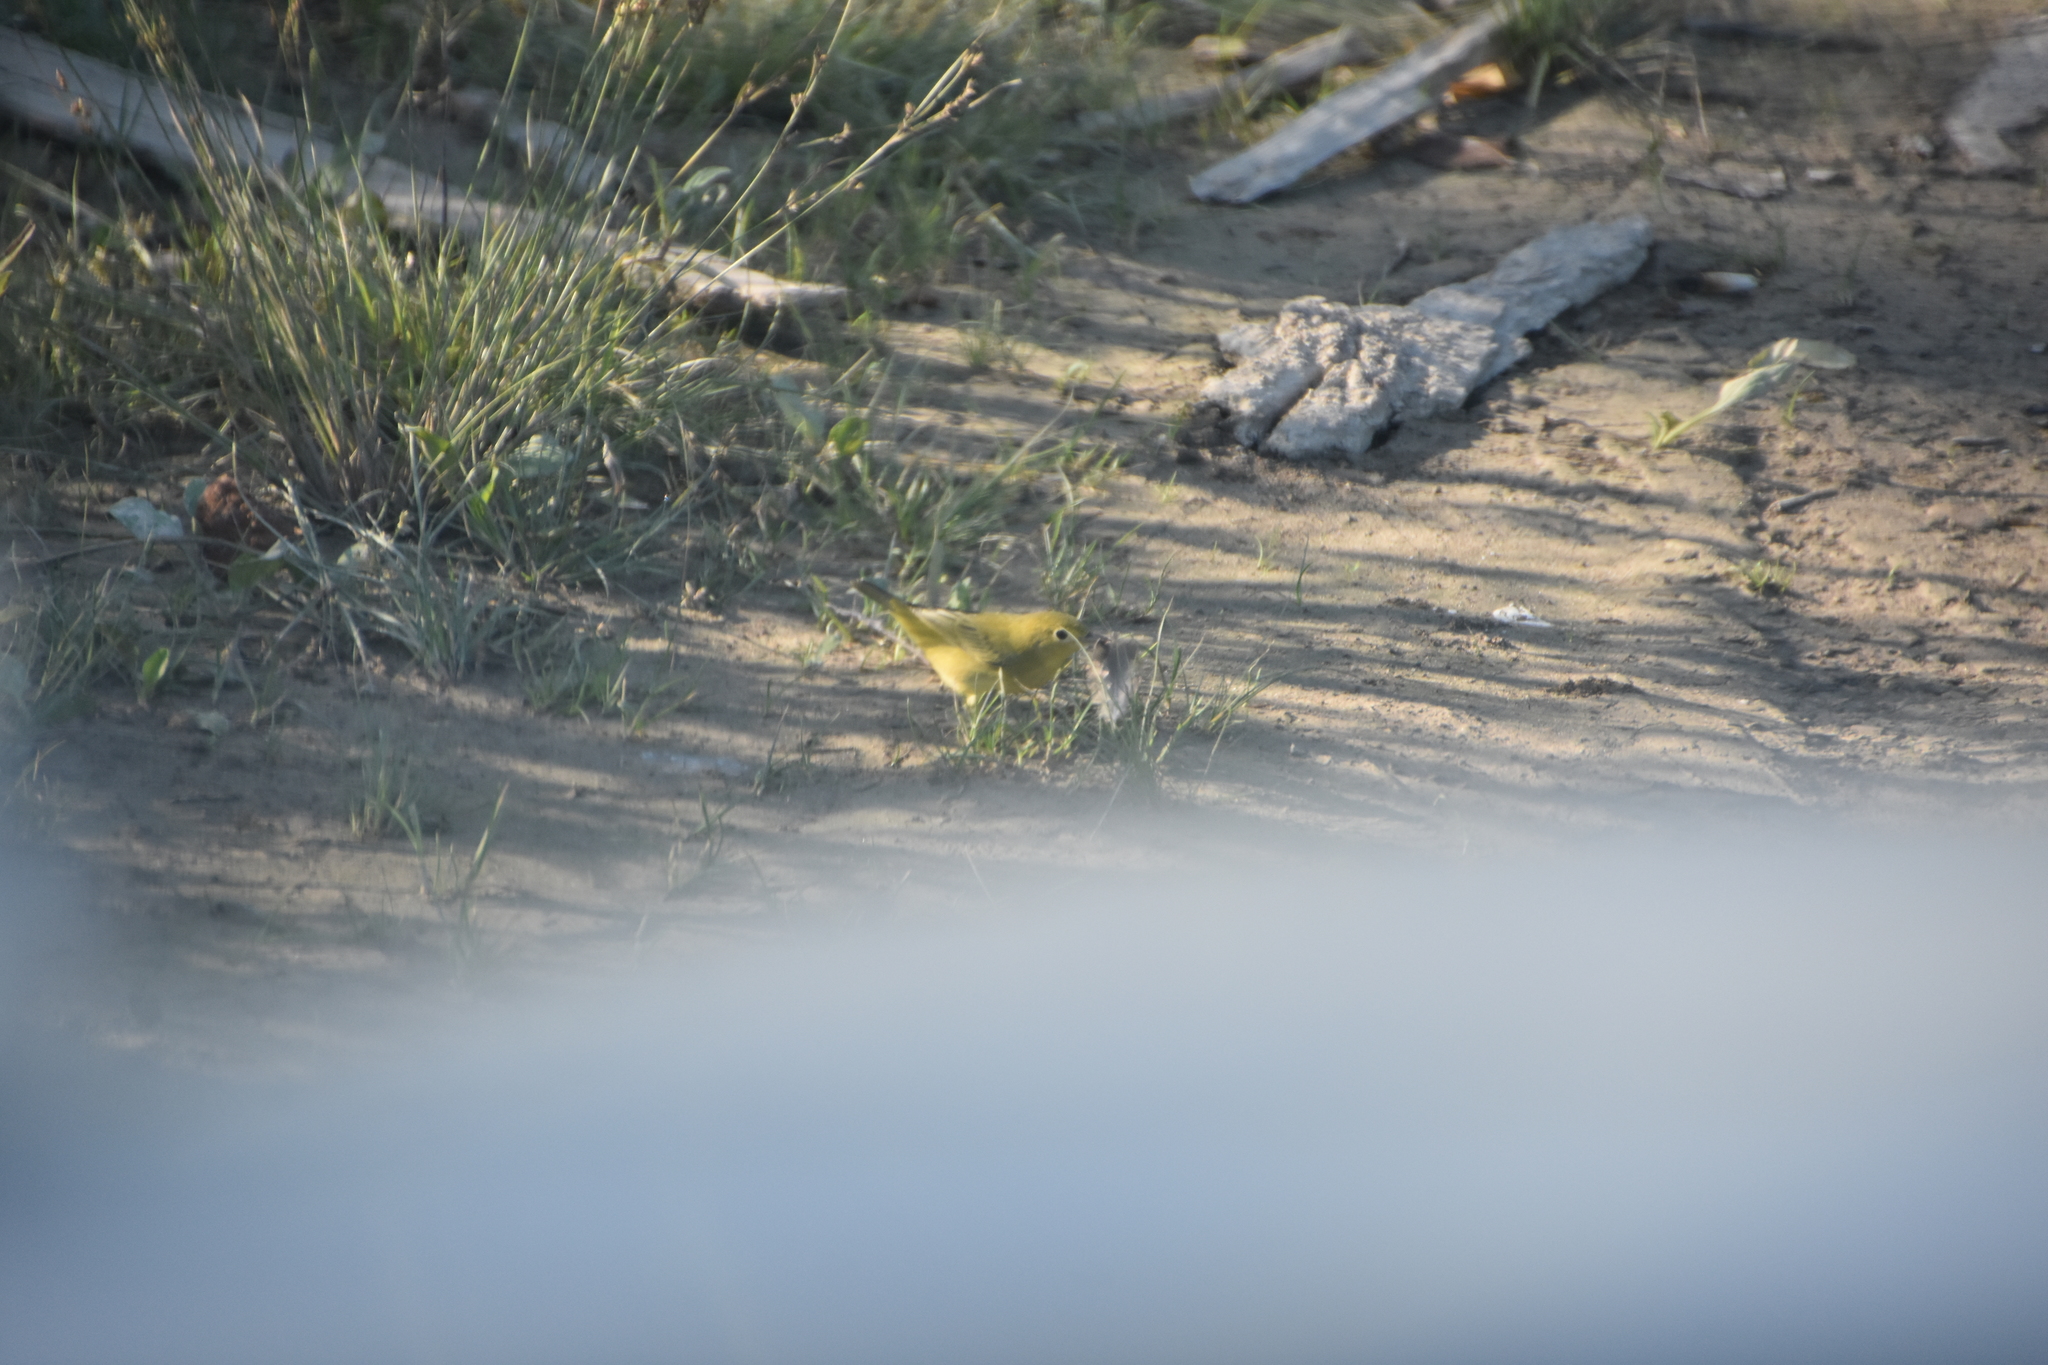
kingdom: Animalia
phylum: Chordata
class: Aves
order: Passeriformes
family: Parulidae
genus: Setophaga
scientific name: Setophaga petechia
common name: Yellow warbler
